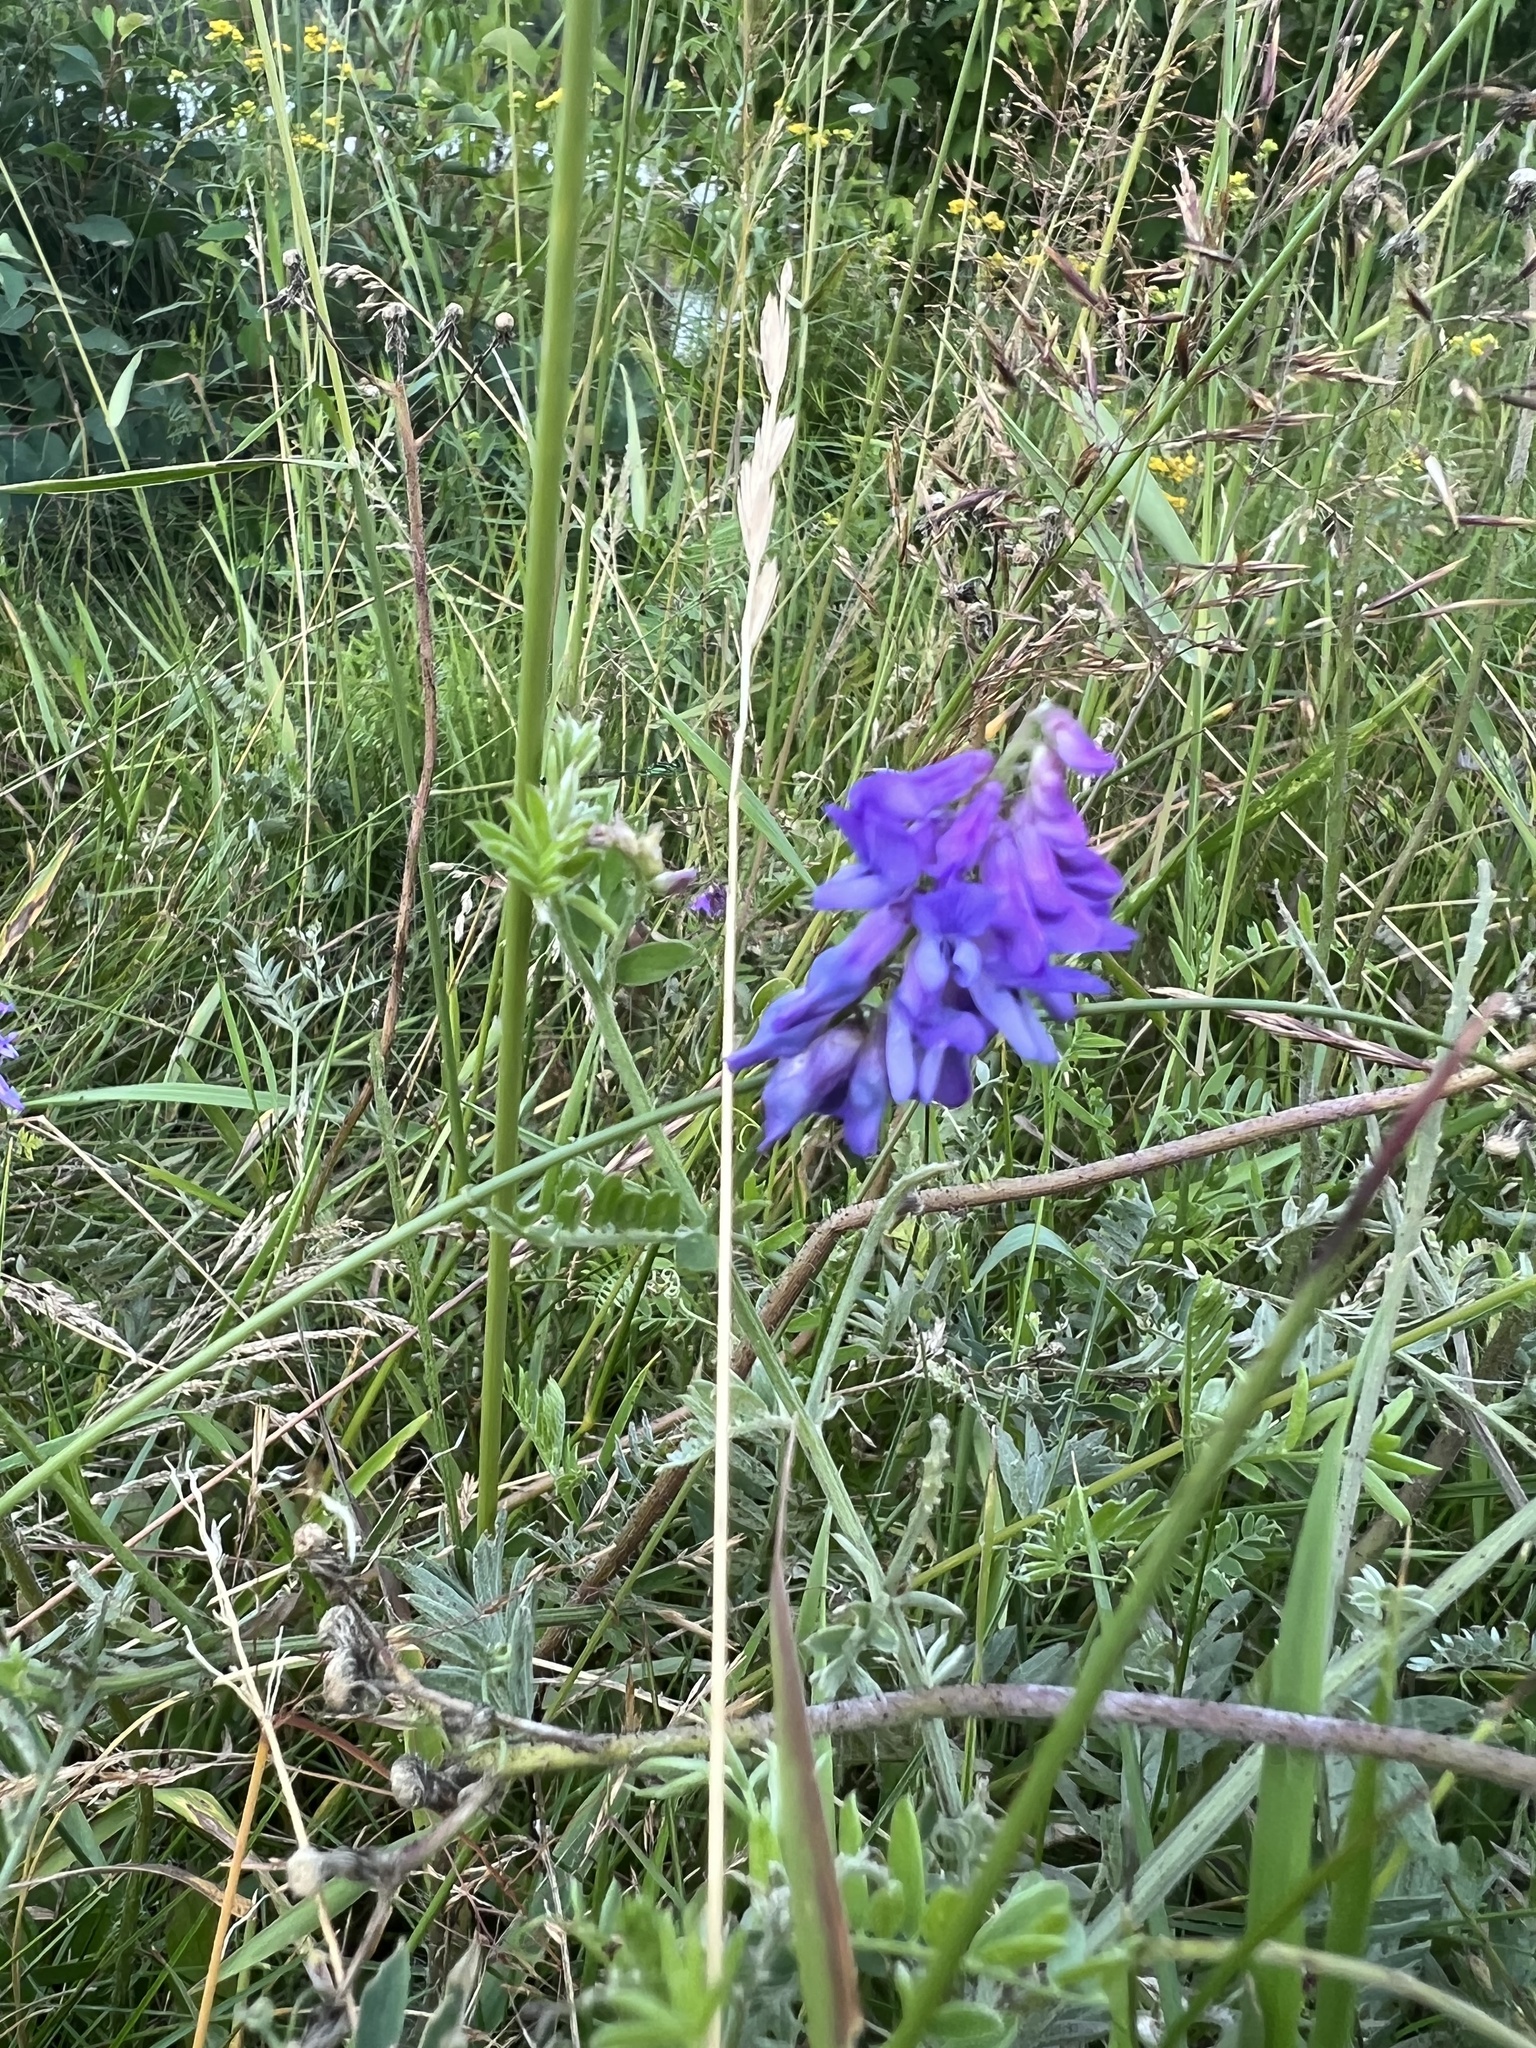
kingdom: Plantae
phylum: Tracheophyta
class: Magnoliopsida
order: Fabales
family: Fabaceae
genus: Vicia
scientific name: Vicia cracca
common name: Bird vetch
